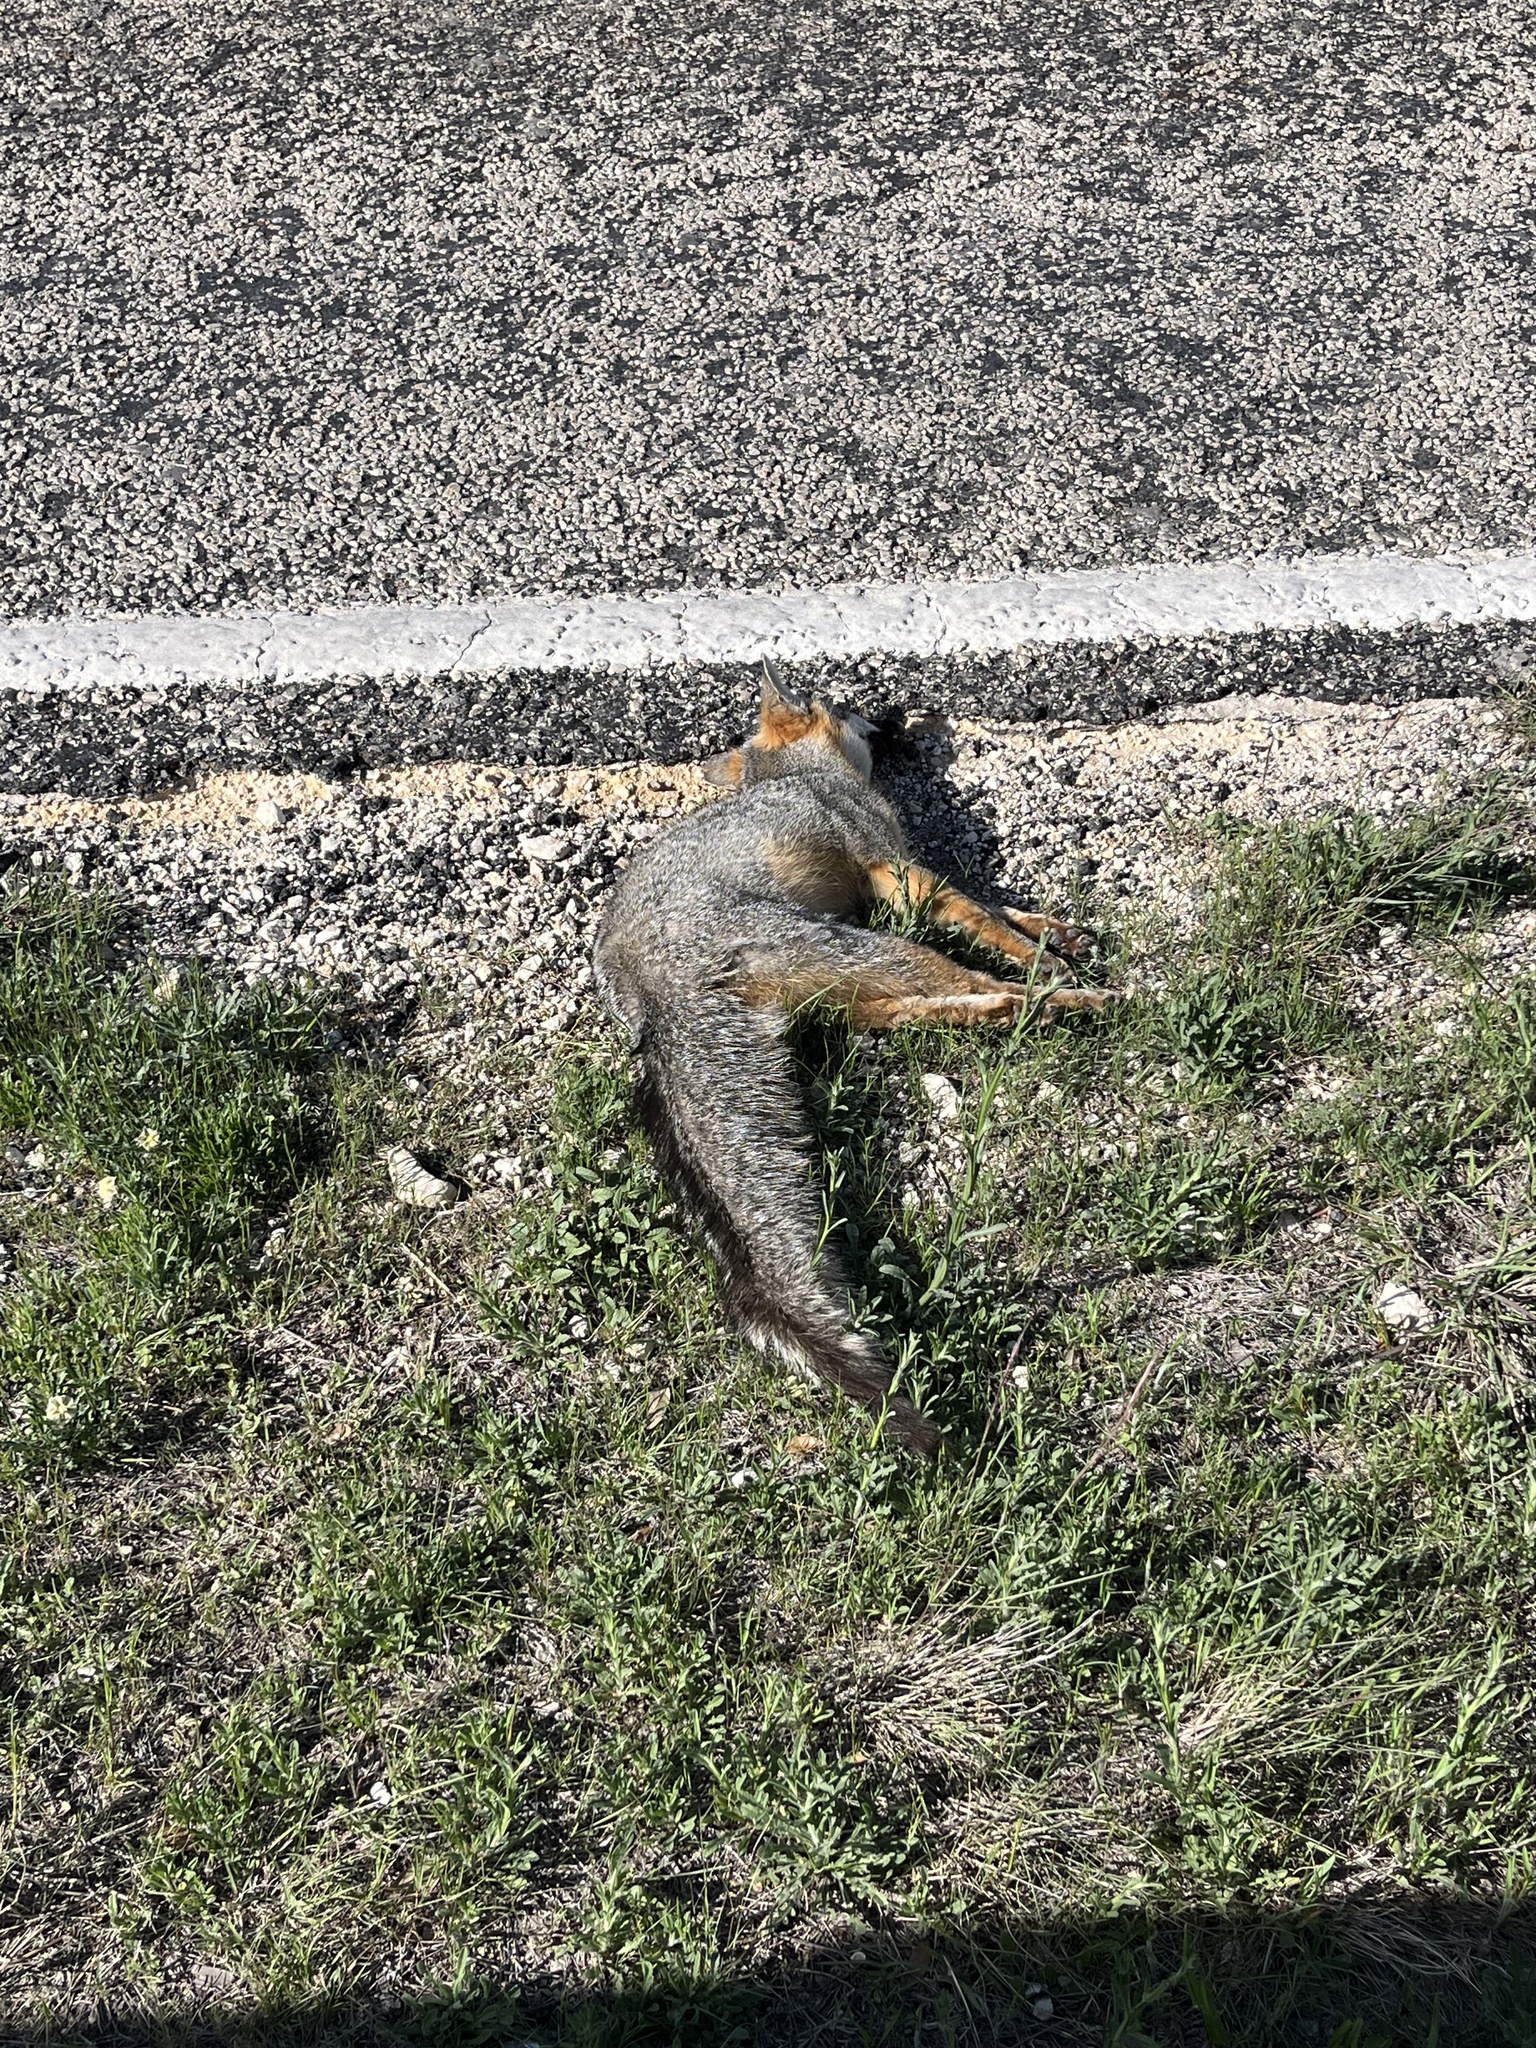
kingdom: Animalia
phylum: Chordata
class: Mammalia
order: Carnivora
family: Canidae
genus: Urocyon
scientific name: Urocyon cinereoargenteus
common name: Gray fox
